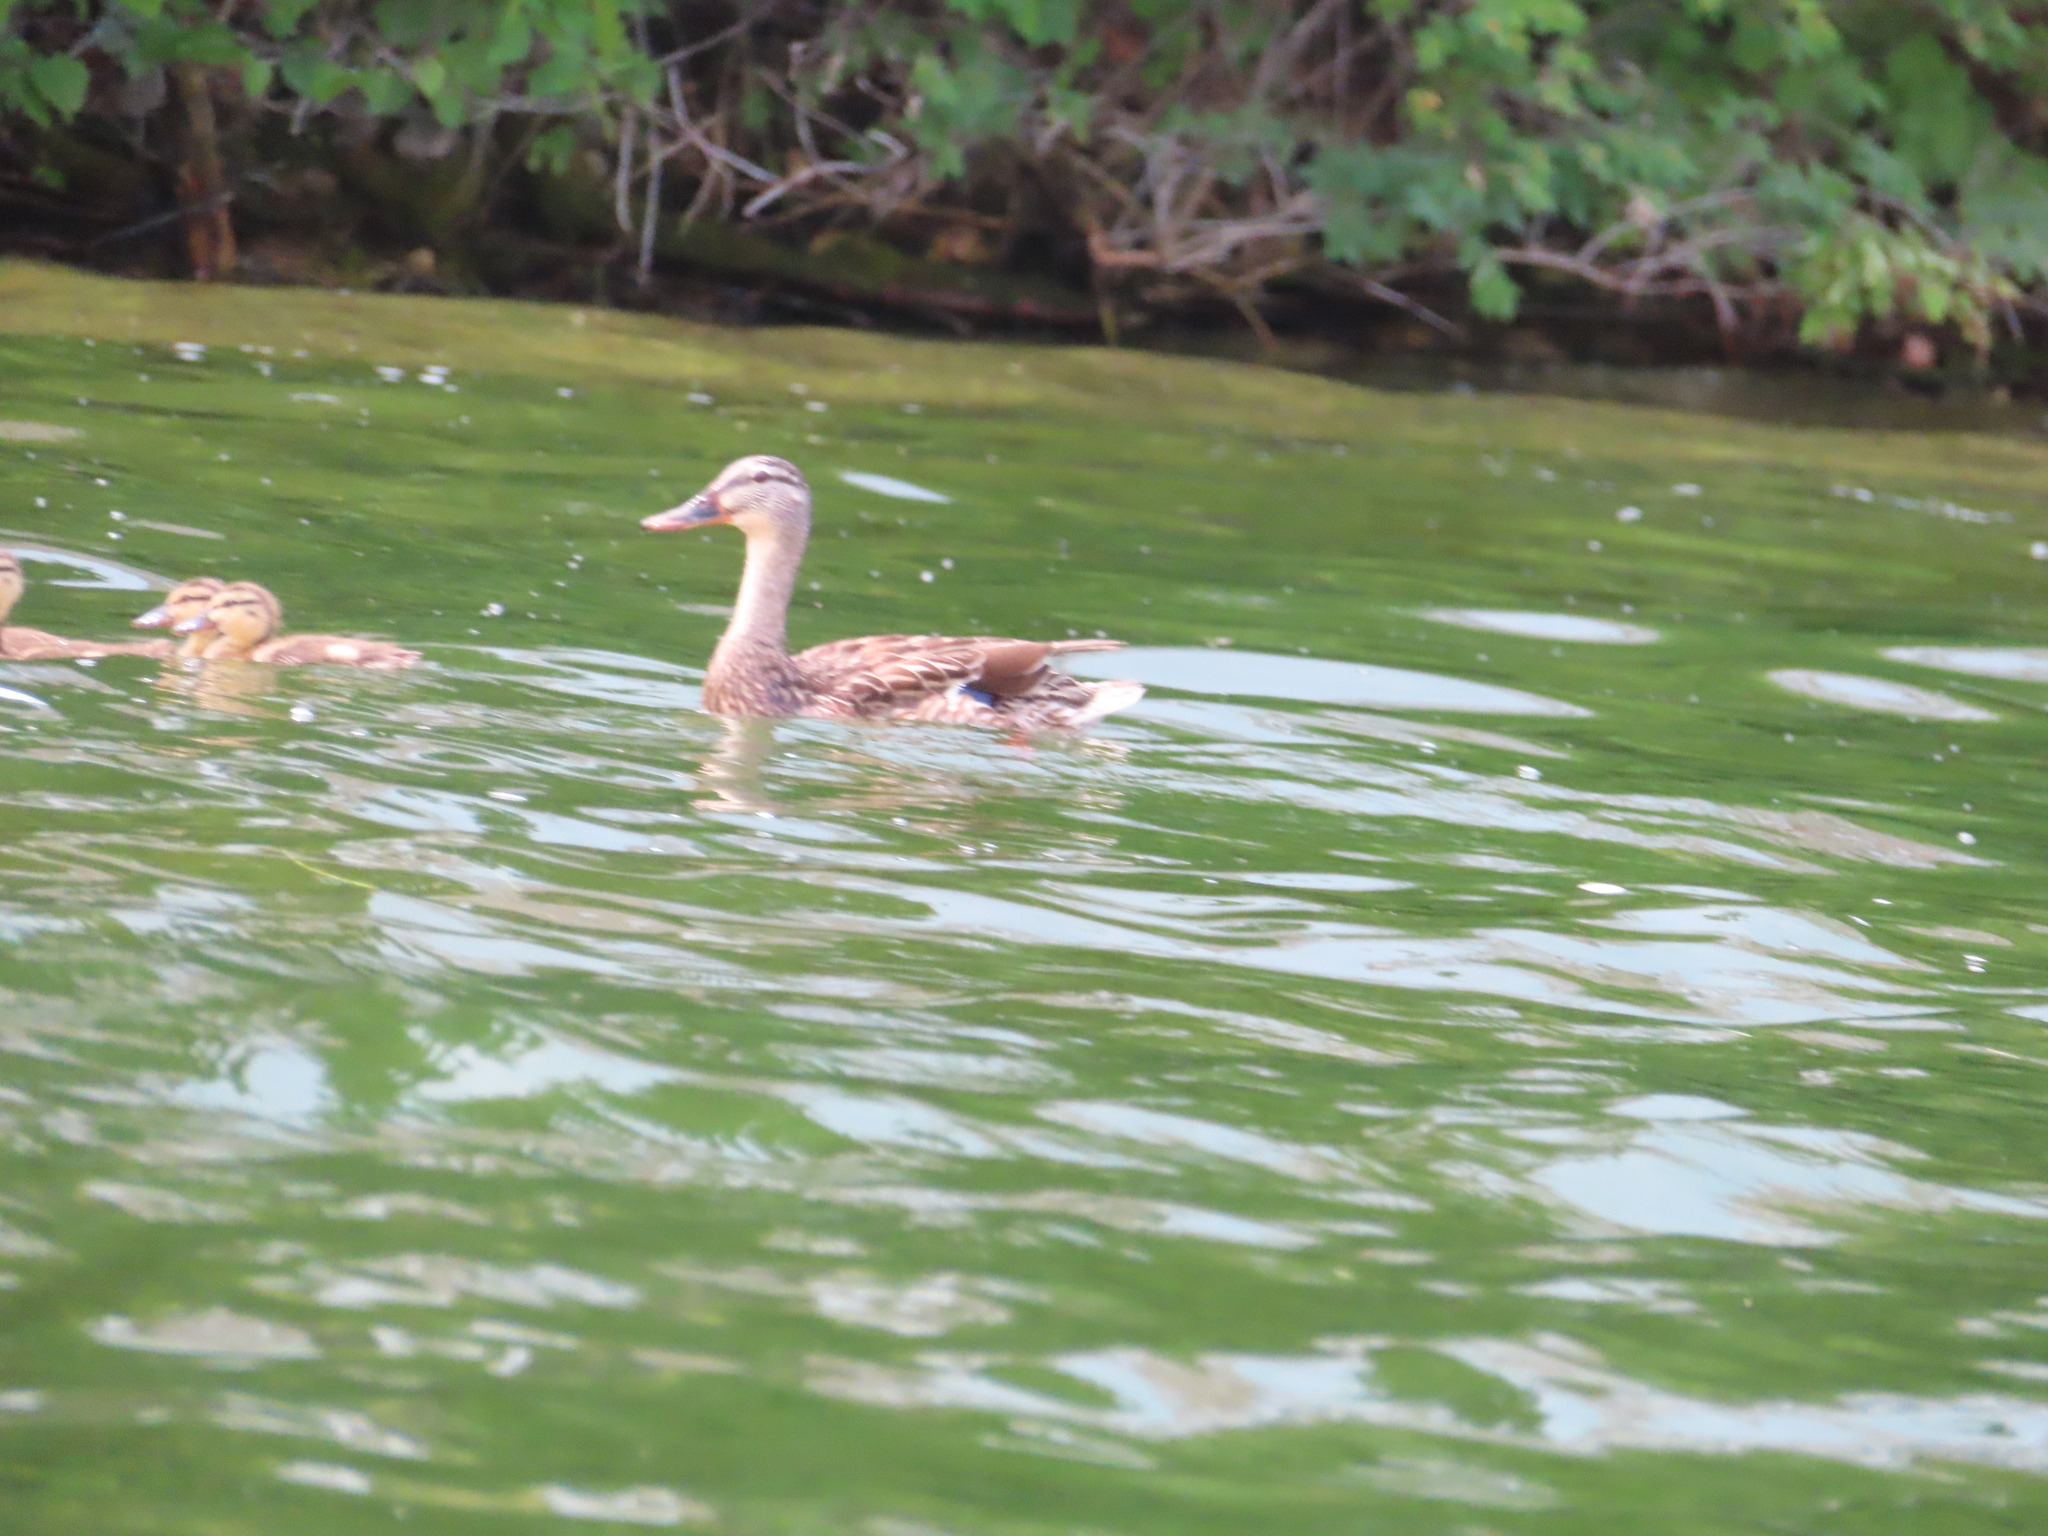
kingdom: Animalia
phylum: Chordata
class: Aves
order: Anseriformes
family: Anatidae
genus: Anas
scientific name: Anas platyrhynchos
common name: Mallard
